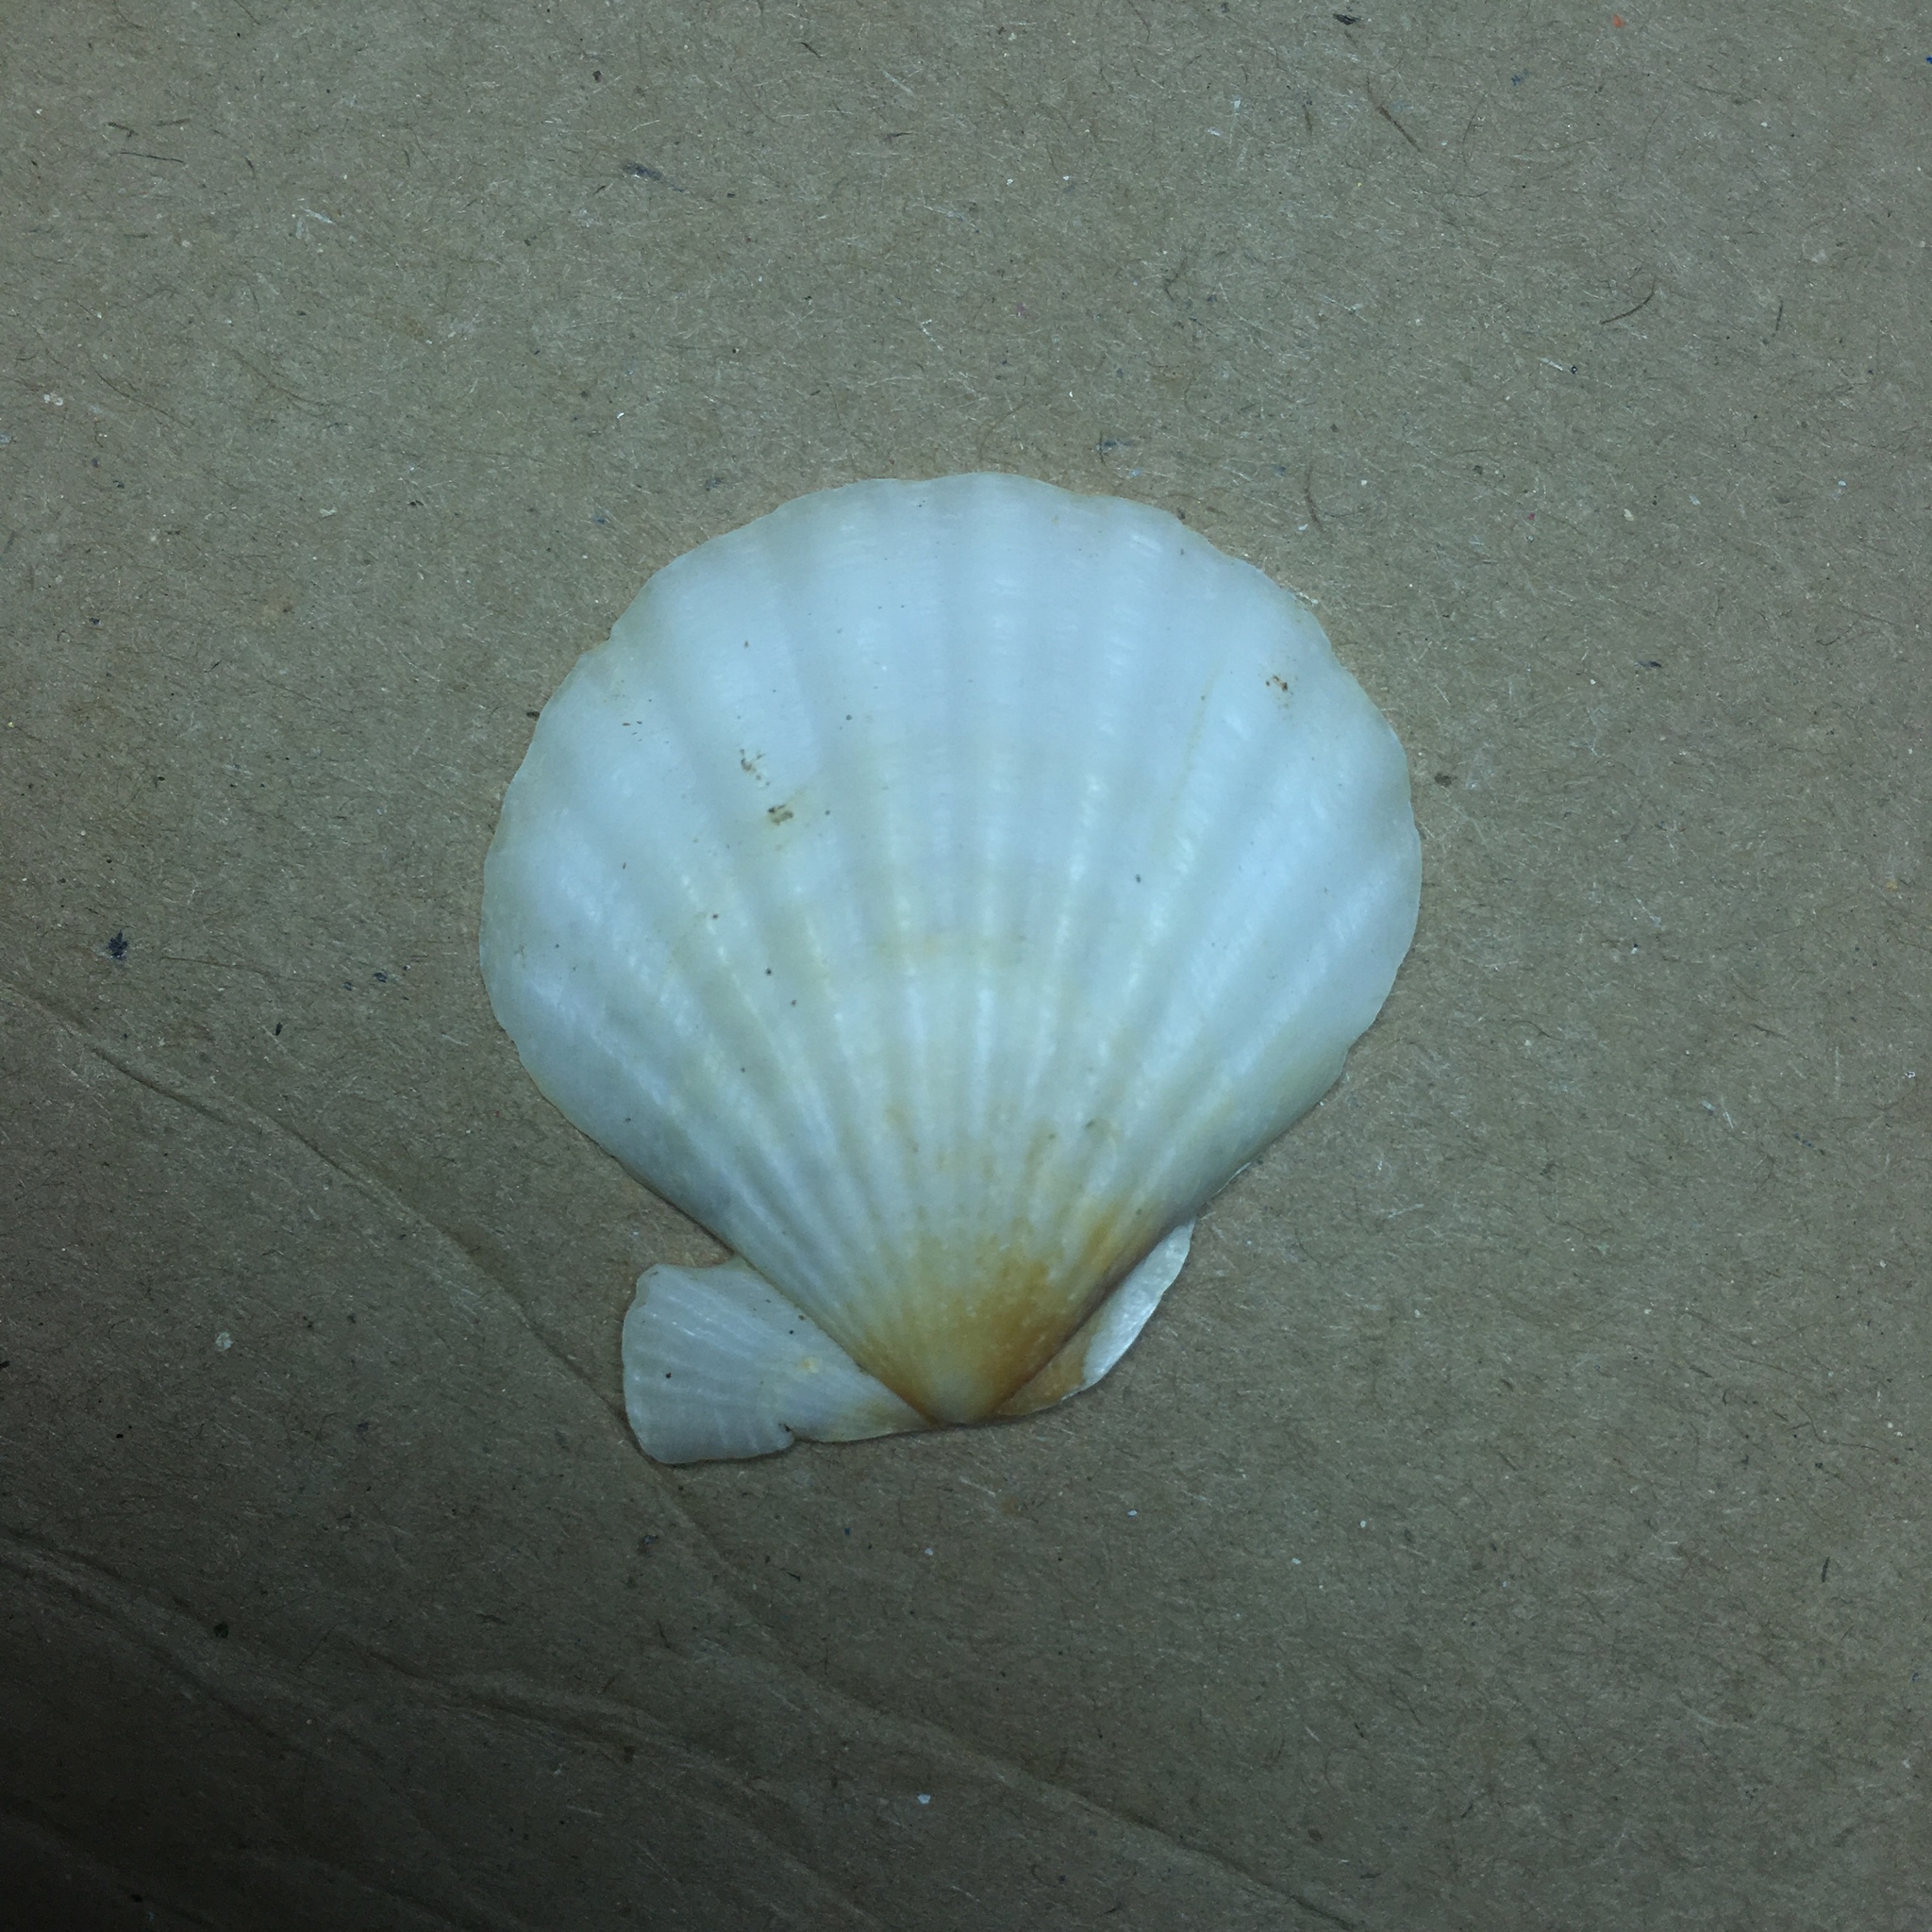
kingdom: Animalia
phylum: Mollusca
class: Bivalvia
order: Pectinida
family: Pectinidae
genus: Flexopecten
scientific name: Flexopecten glaber
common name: Smooth scallop
